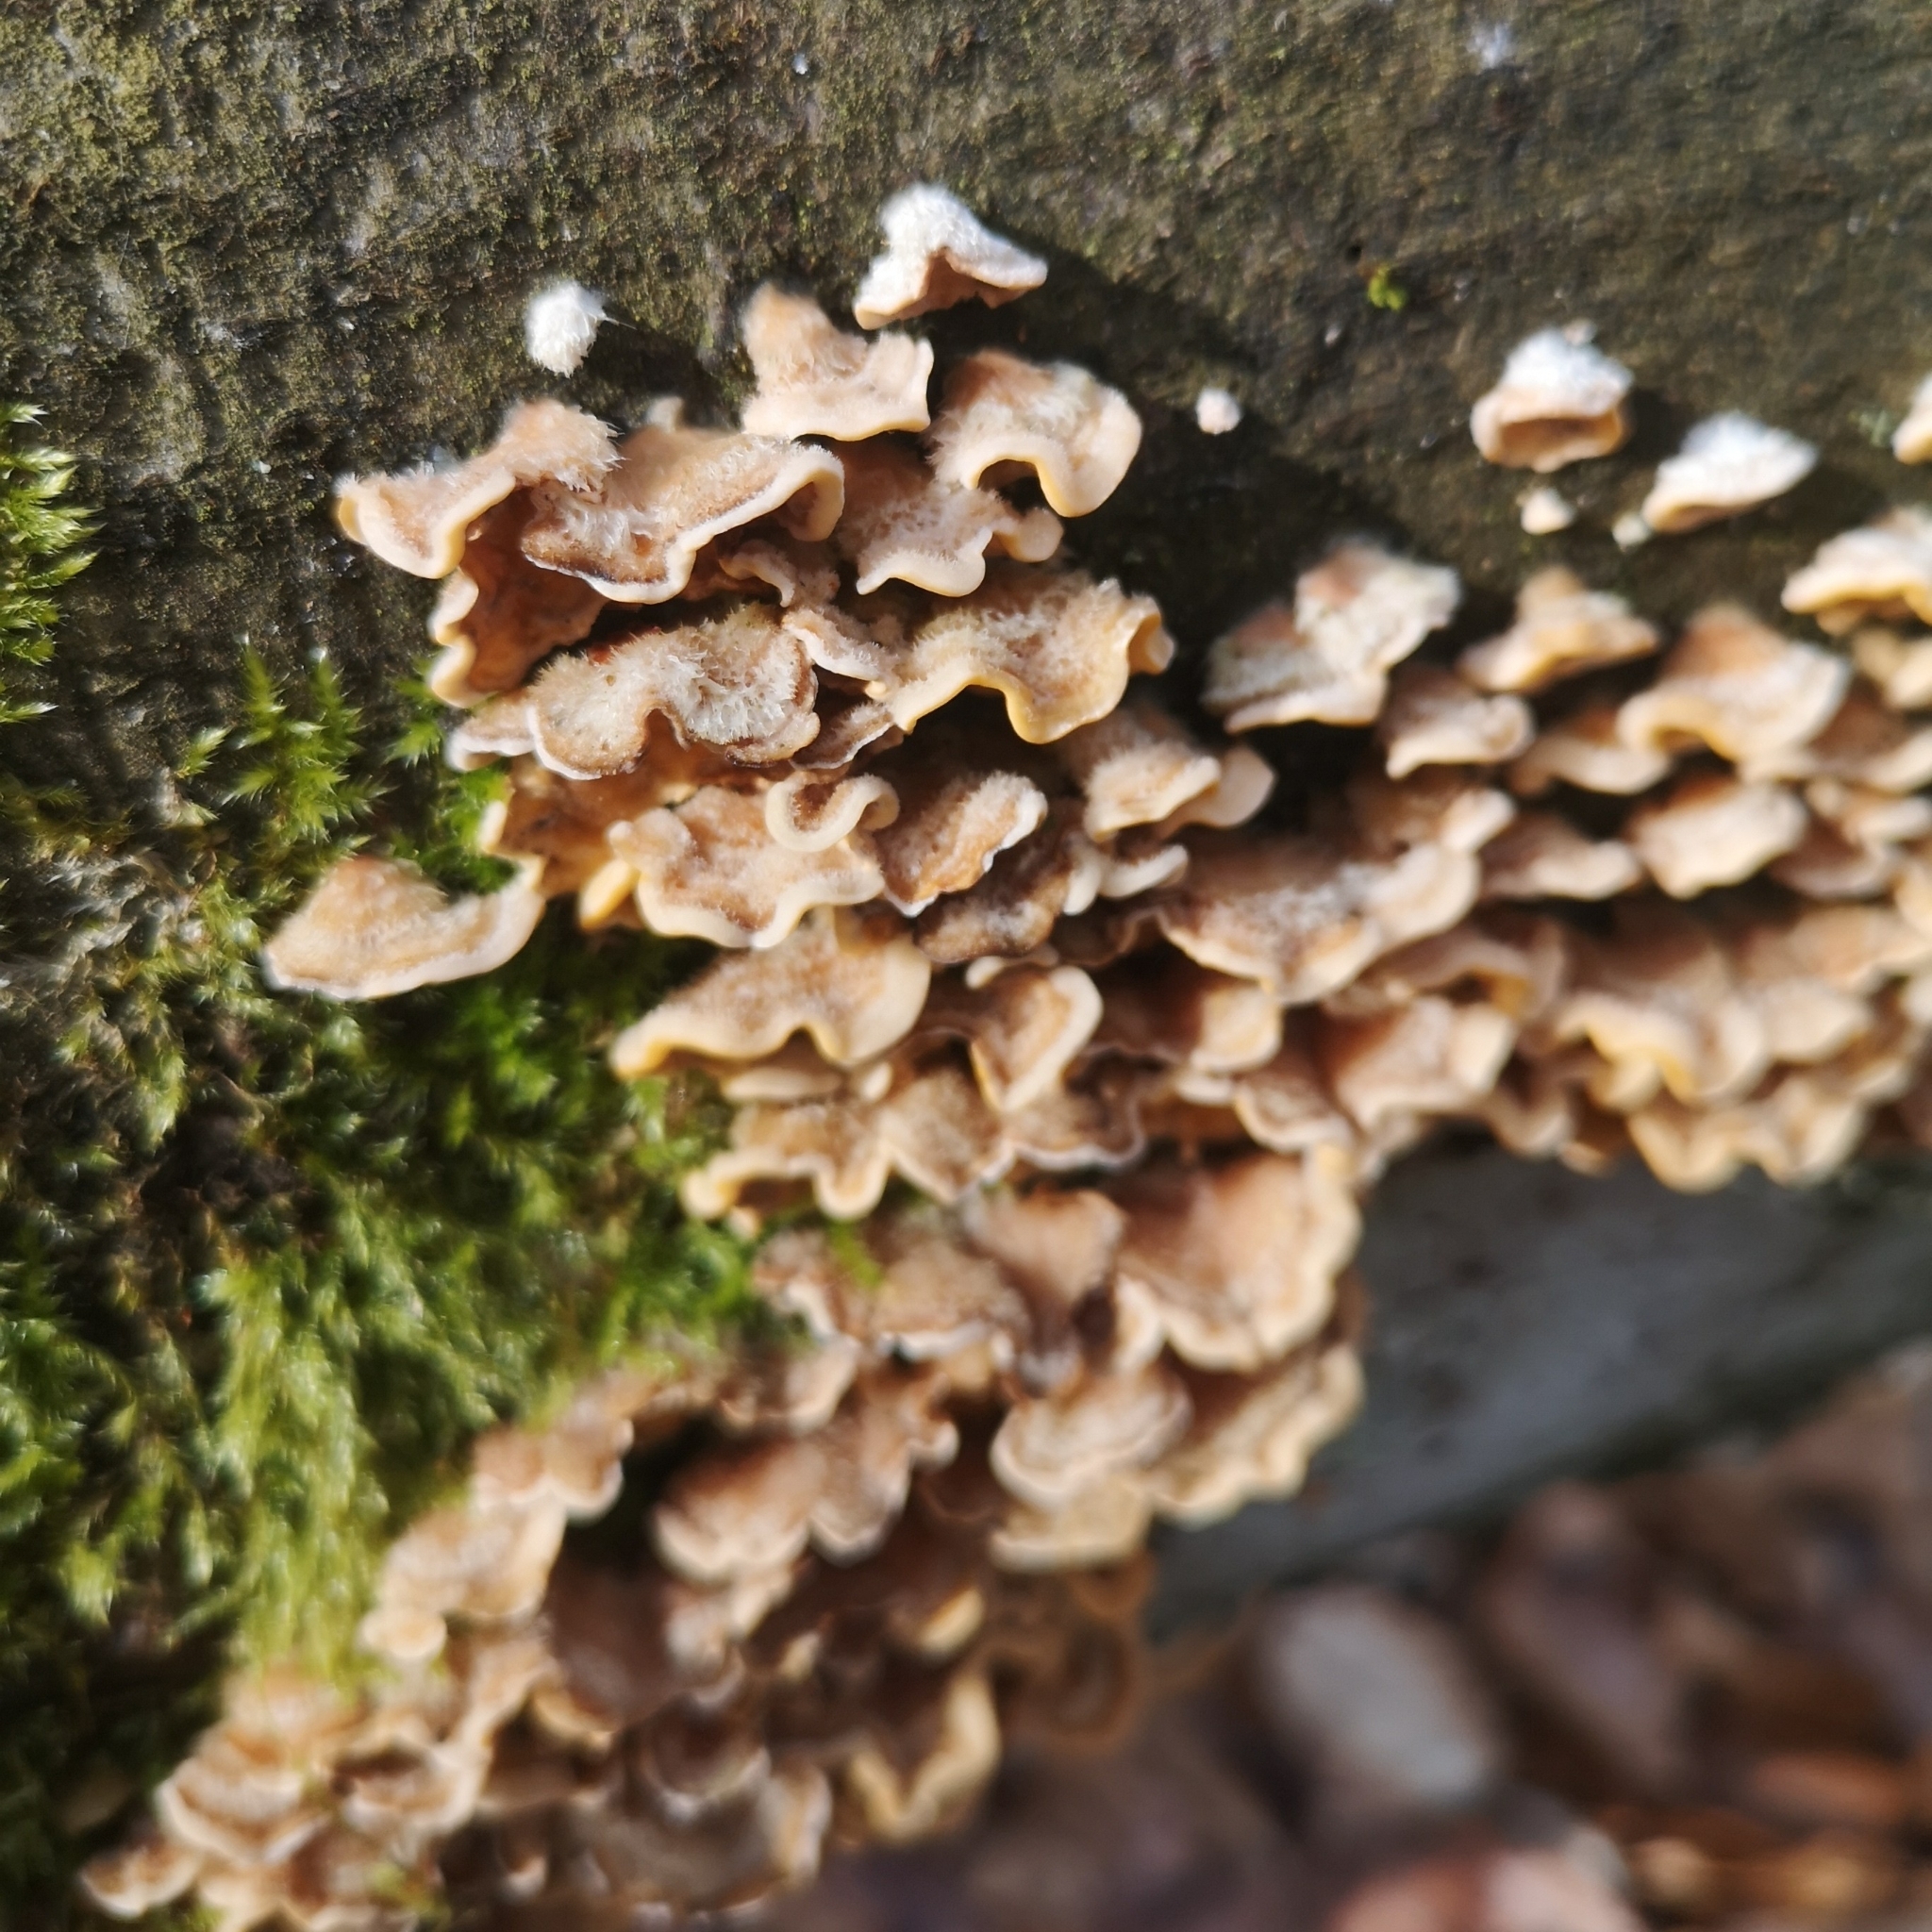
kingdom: Fungi
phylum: Basidiomycota
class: Agaricomycetes
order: Russulales
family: Stereaceae
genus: Stereum
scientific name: Stereum hirsutum
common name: Hairy curtain crust
